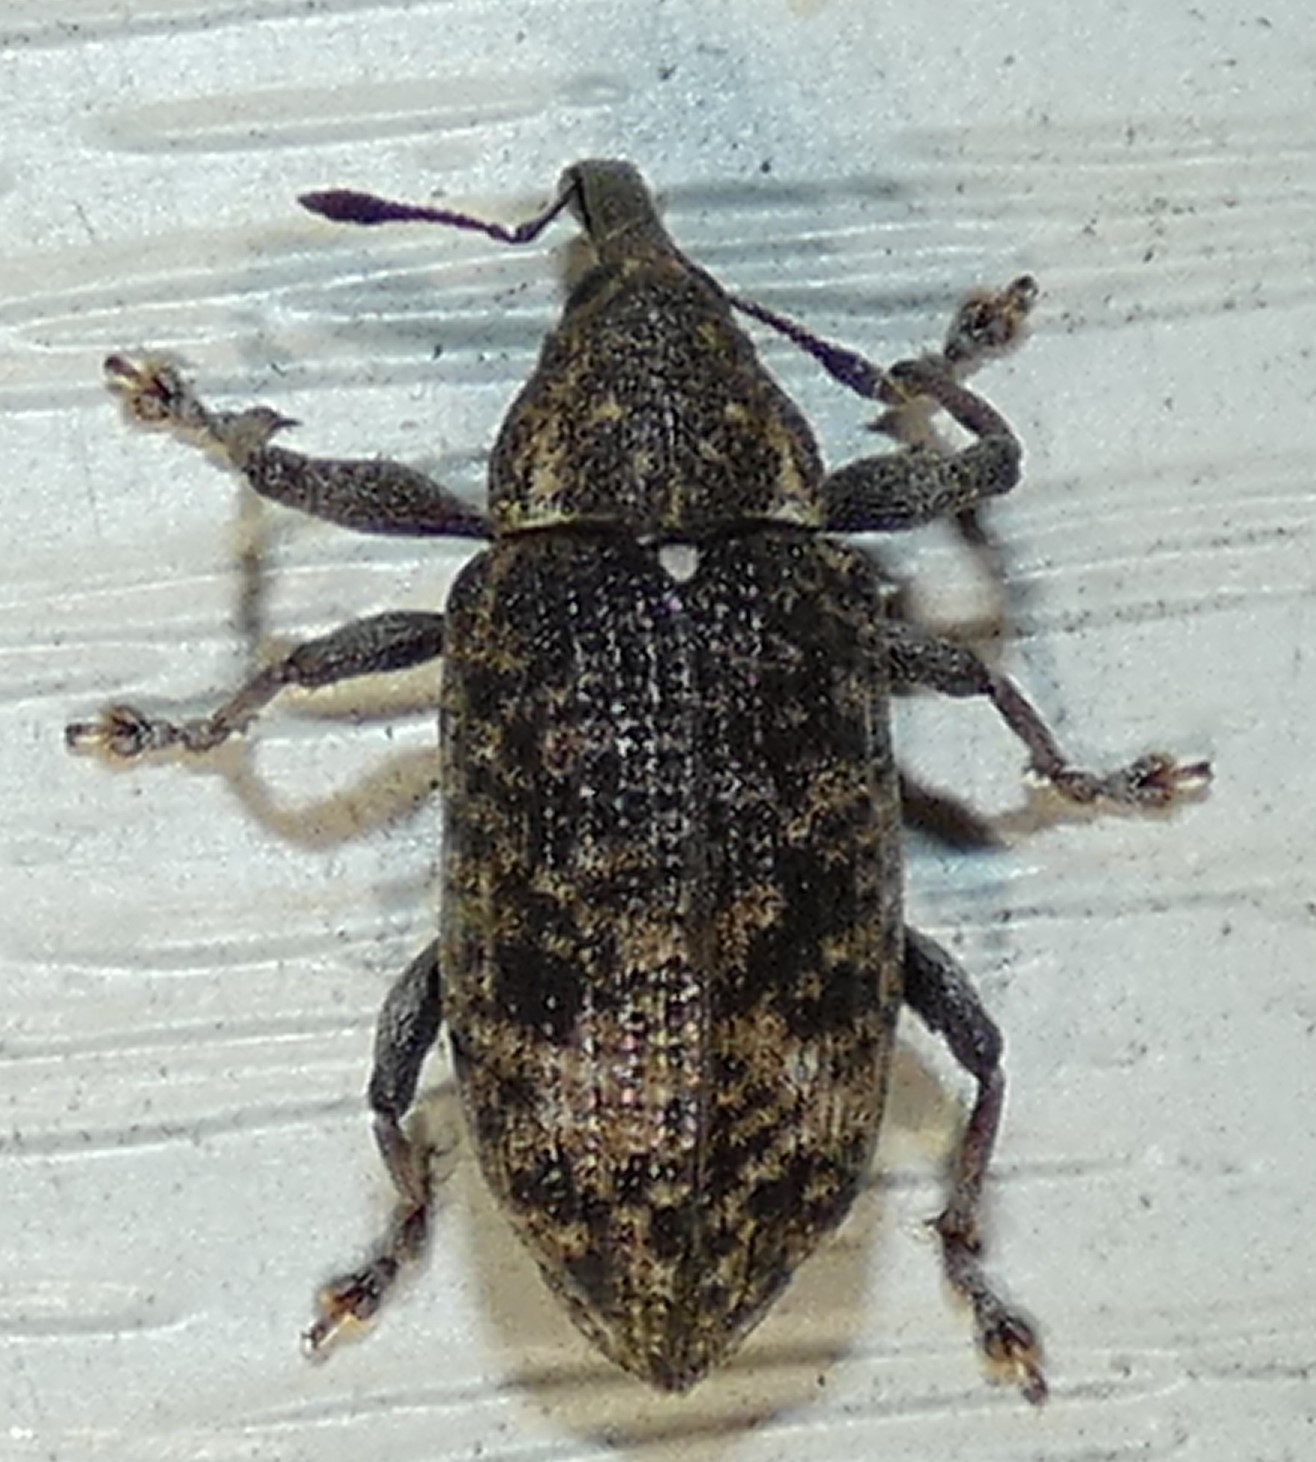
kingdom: Animalia
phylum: Arthropoda
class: Insecta
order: Coleoptera
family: Curculionidae
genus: Hilipinus
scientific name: Hilipinus nearcticus
